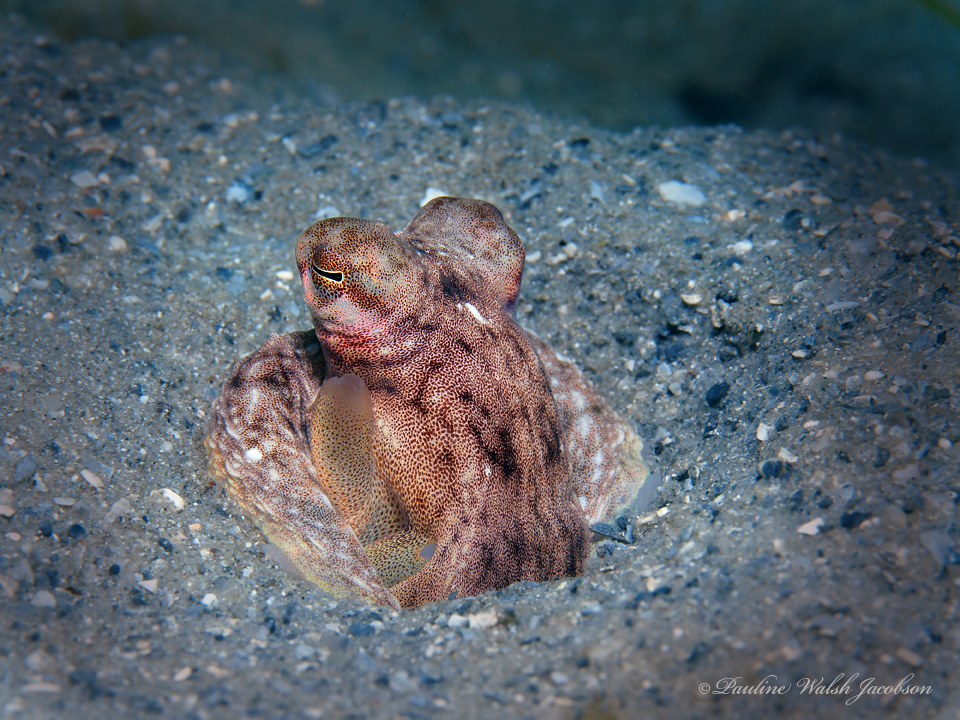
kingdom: Animalia
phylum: Mollusca
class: Cephalopoda
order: Octopoda
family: Octopodidae
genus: Macrotritopus
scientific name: Macrotritopus defilippi
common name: Lilliput longarm octopus
